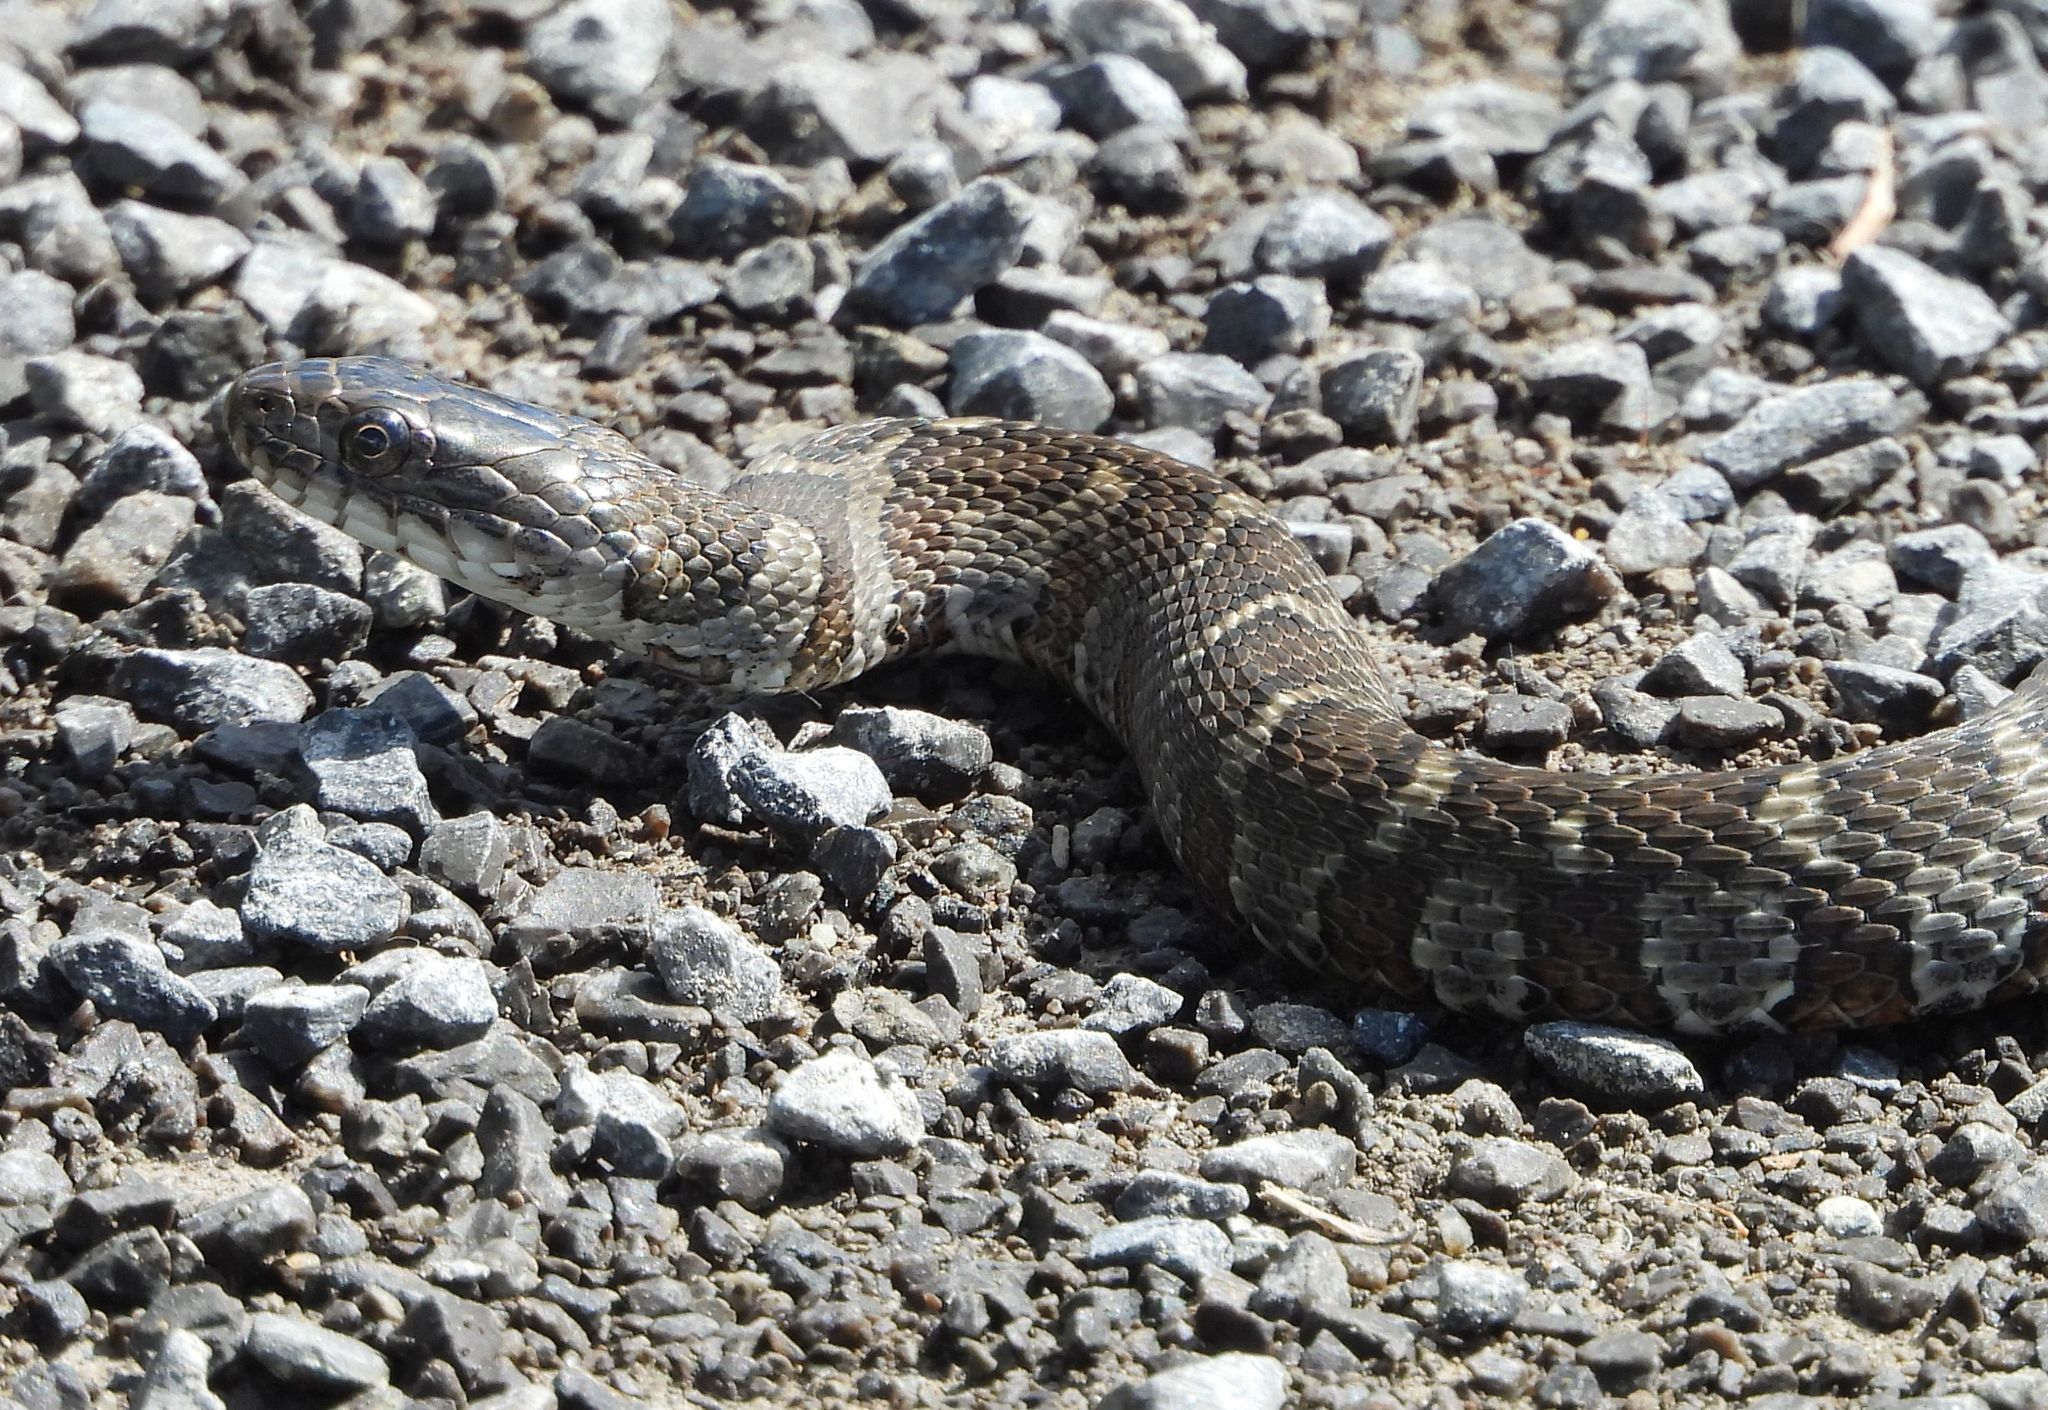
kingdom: Animalia
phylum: Chordata
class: Squamata
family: Colubridae
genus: Nerodia
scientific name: Nerodia sipedon
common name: Northern water snake
